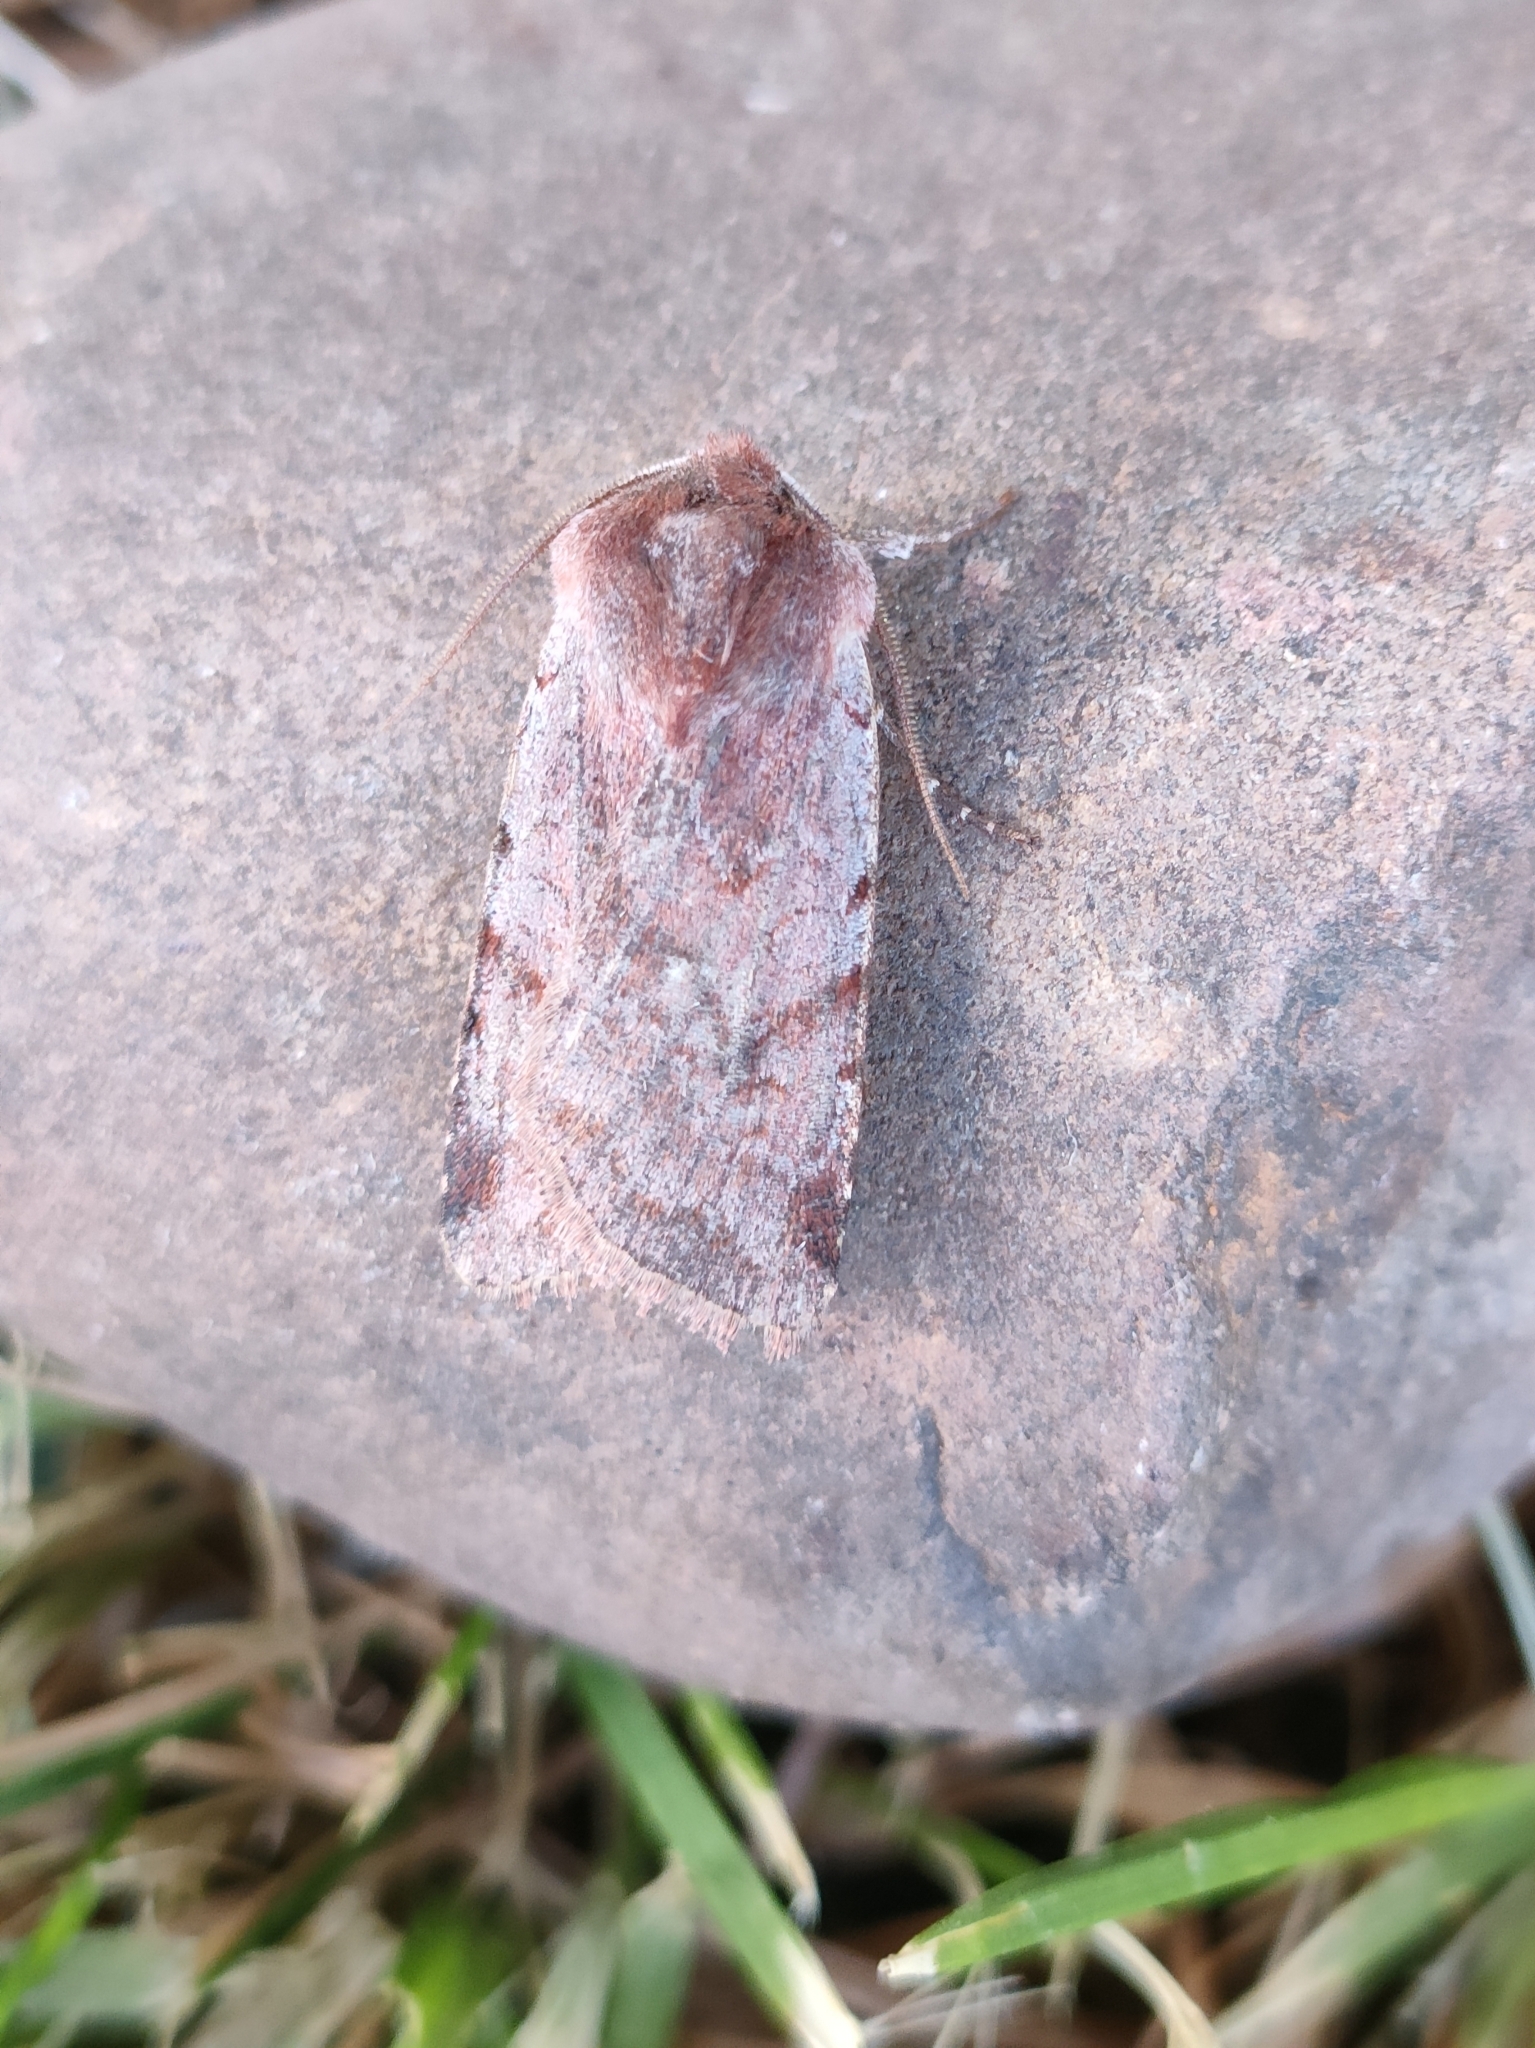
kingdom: Animalia
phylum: Arthropoda
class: Insecta
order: Lepidoptera
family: Noctuidae
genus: Cerastis
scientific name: Cerastis rubricosa
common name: Red chestnut
